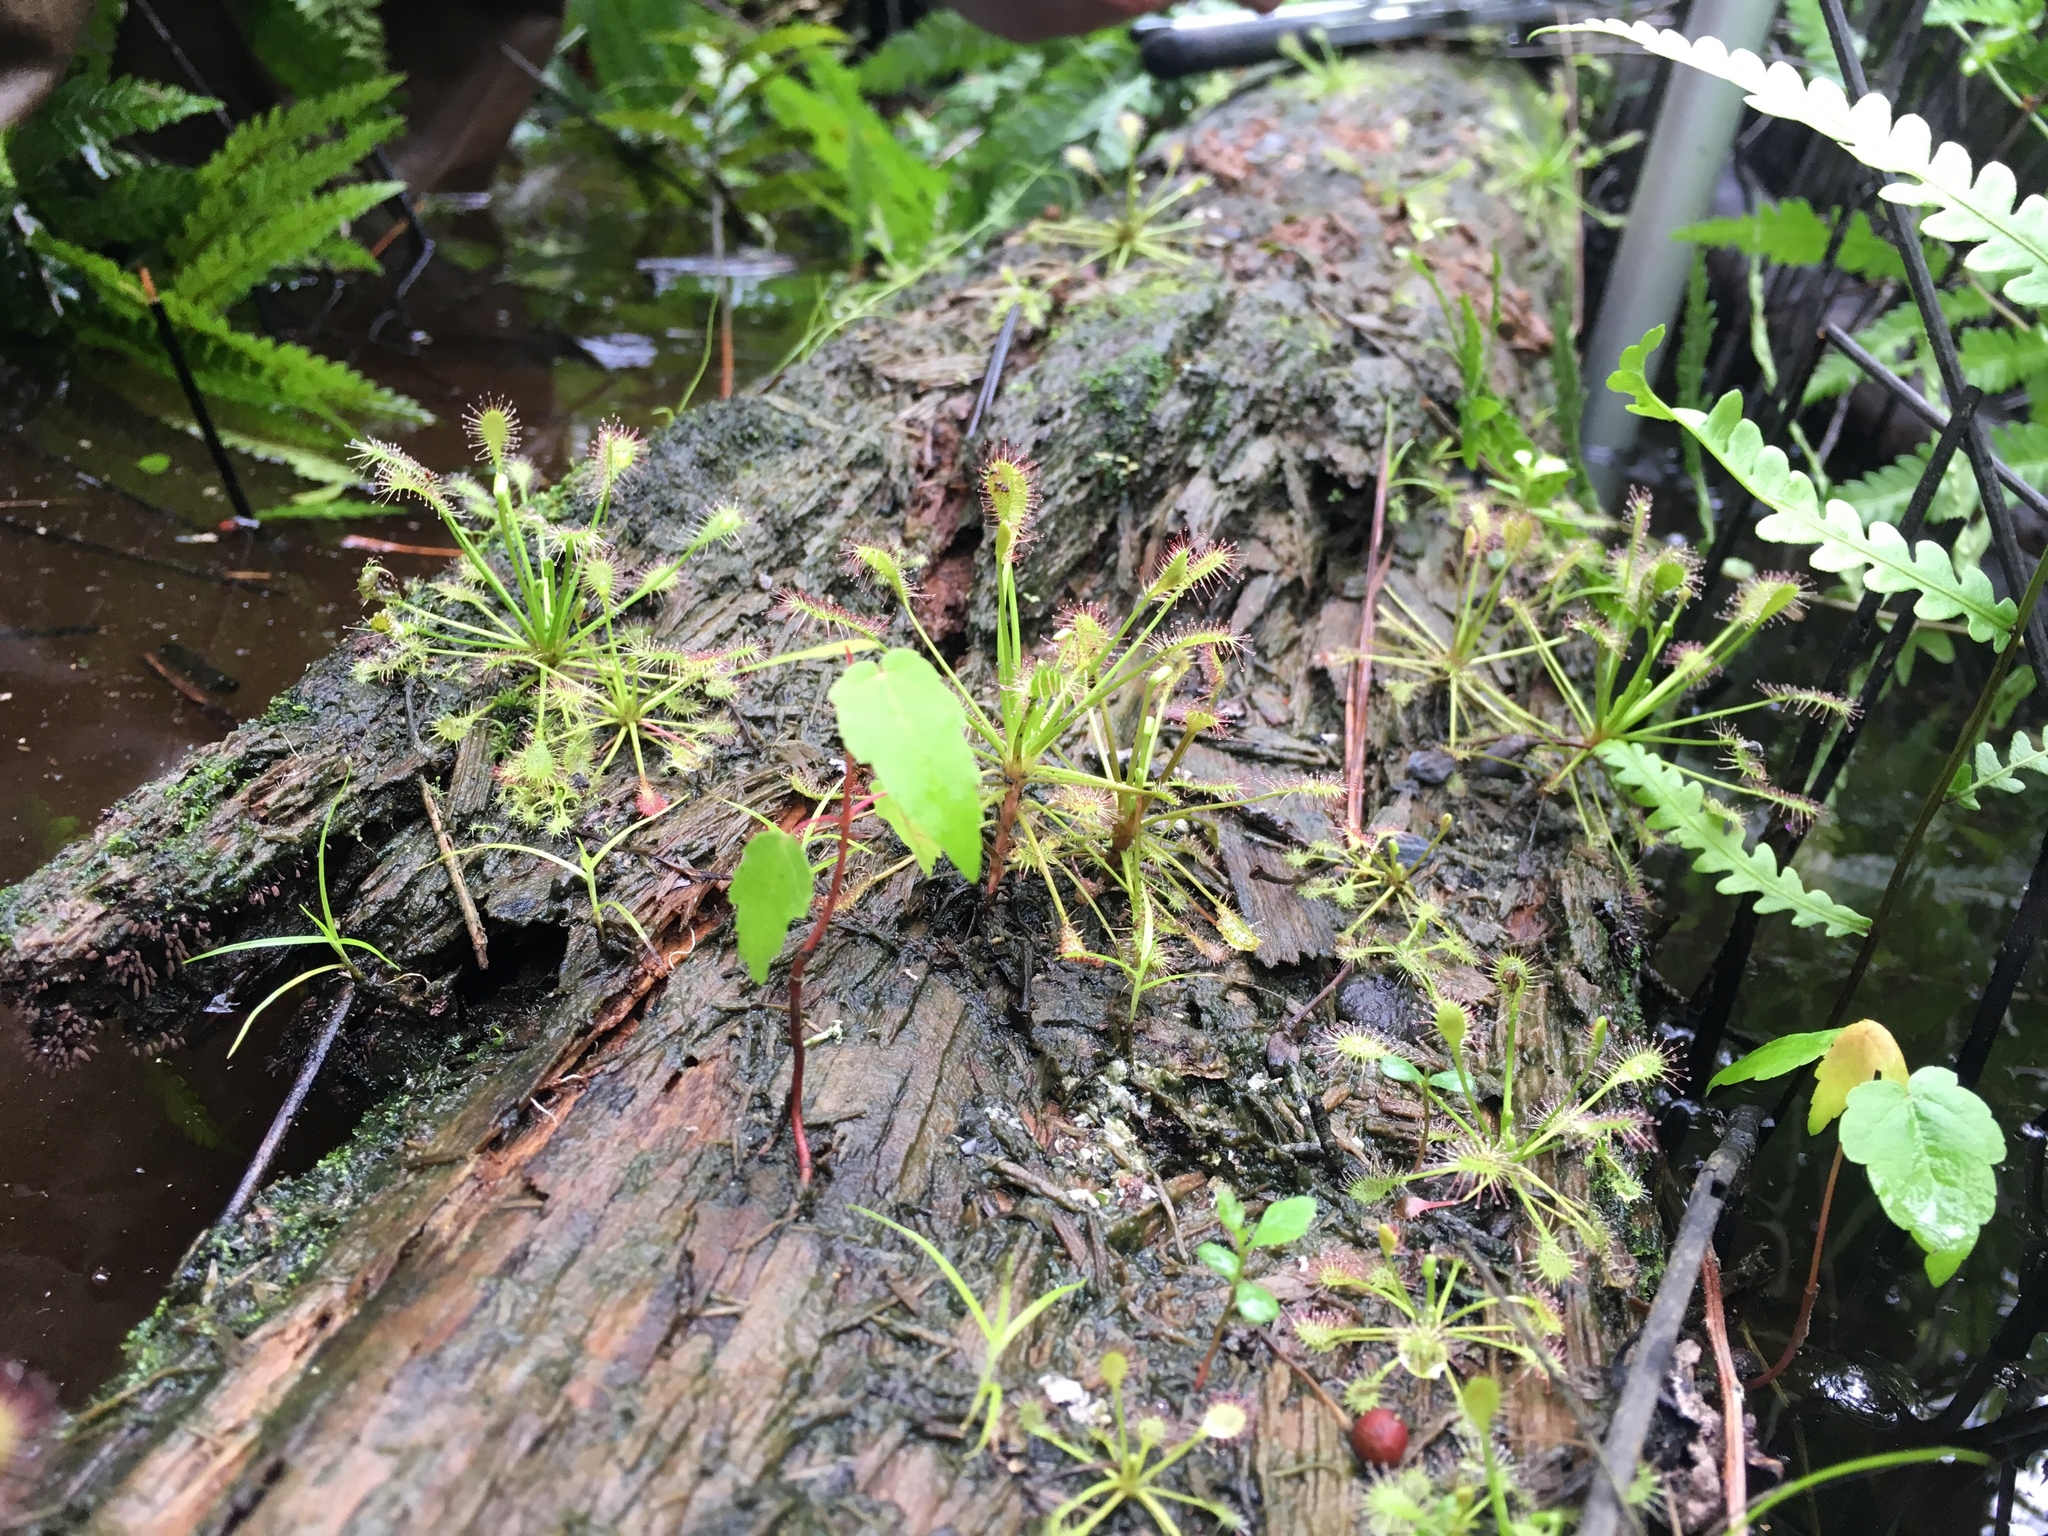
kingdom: Plantae
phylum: Tracheophyta
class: Magnoliopsida
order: Caryophyllales
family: Droseraceae
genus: Drosera
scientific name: Drosera intermedia
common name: Oblong-leaved sundew
